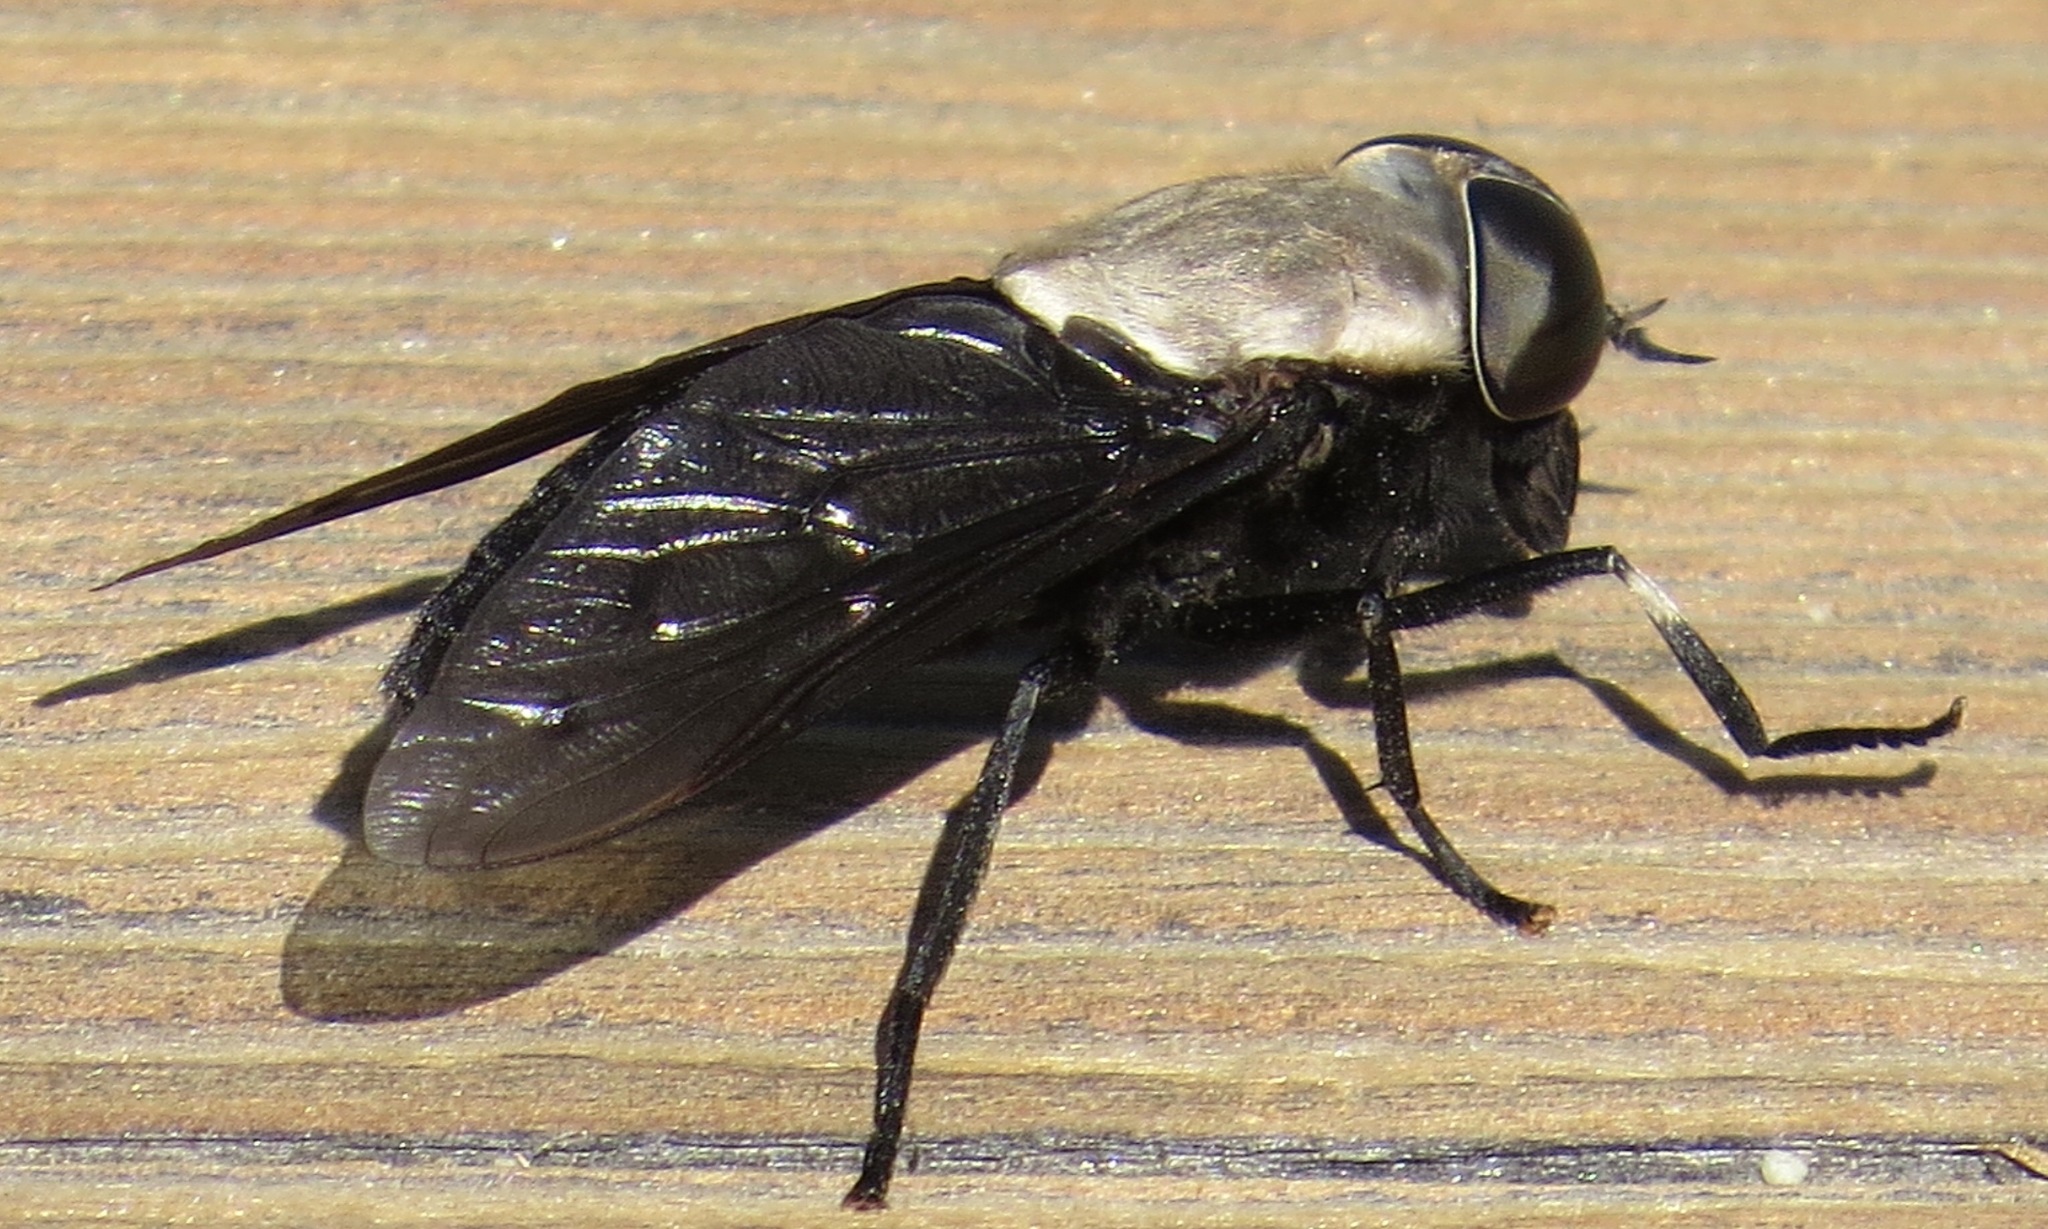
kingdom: Animalia
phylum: Arthropoda
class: Insecta
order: Diptera
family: Tabanidae
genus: Tabanus
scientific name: Tabanus punctifer
